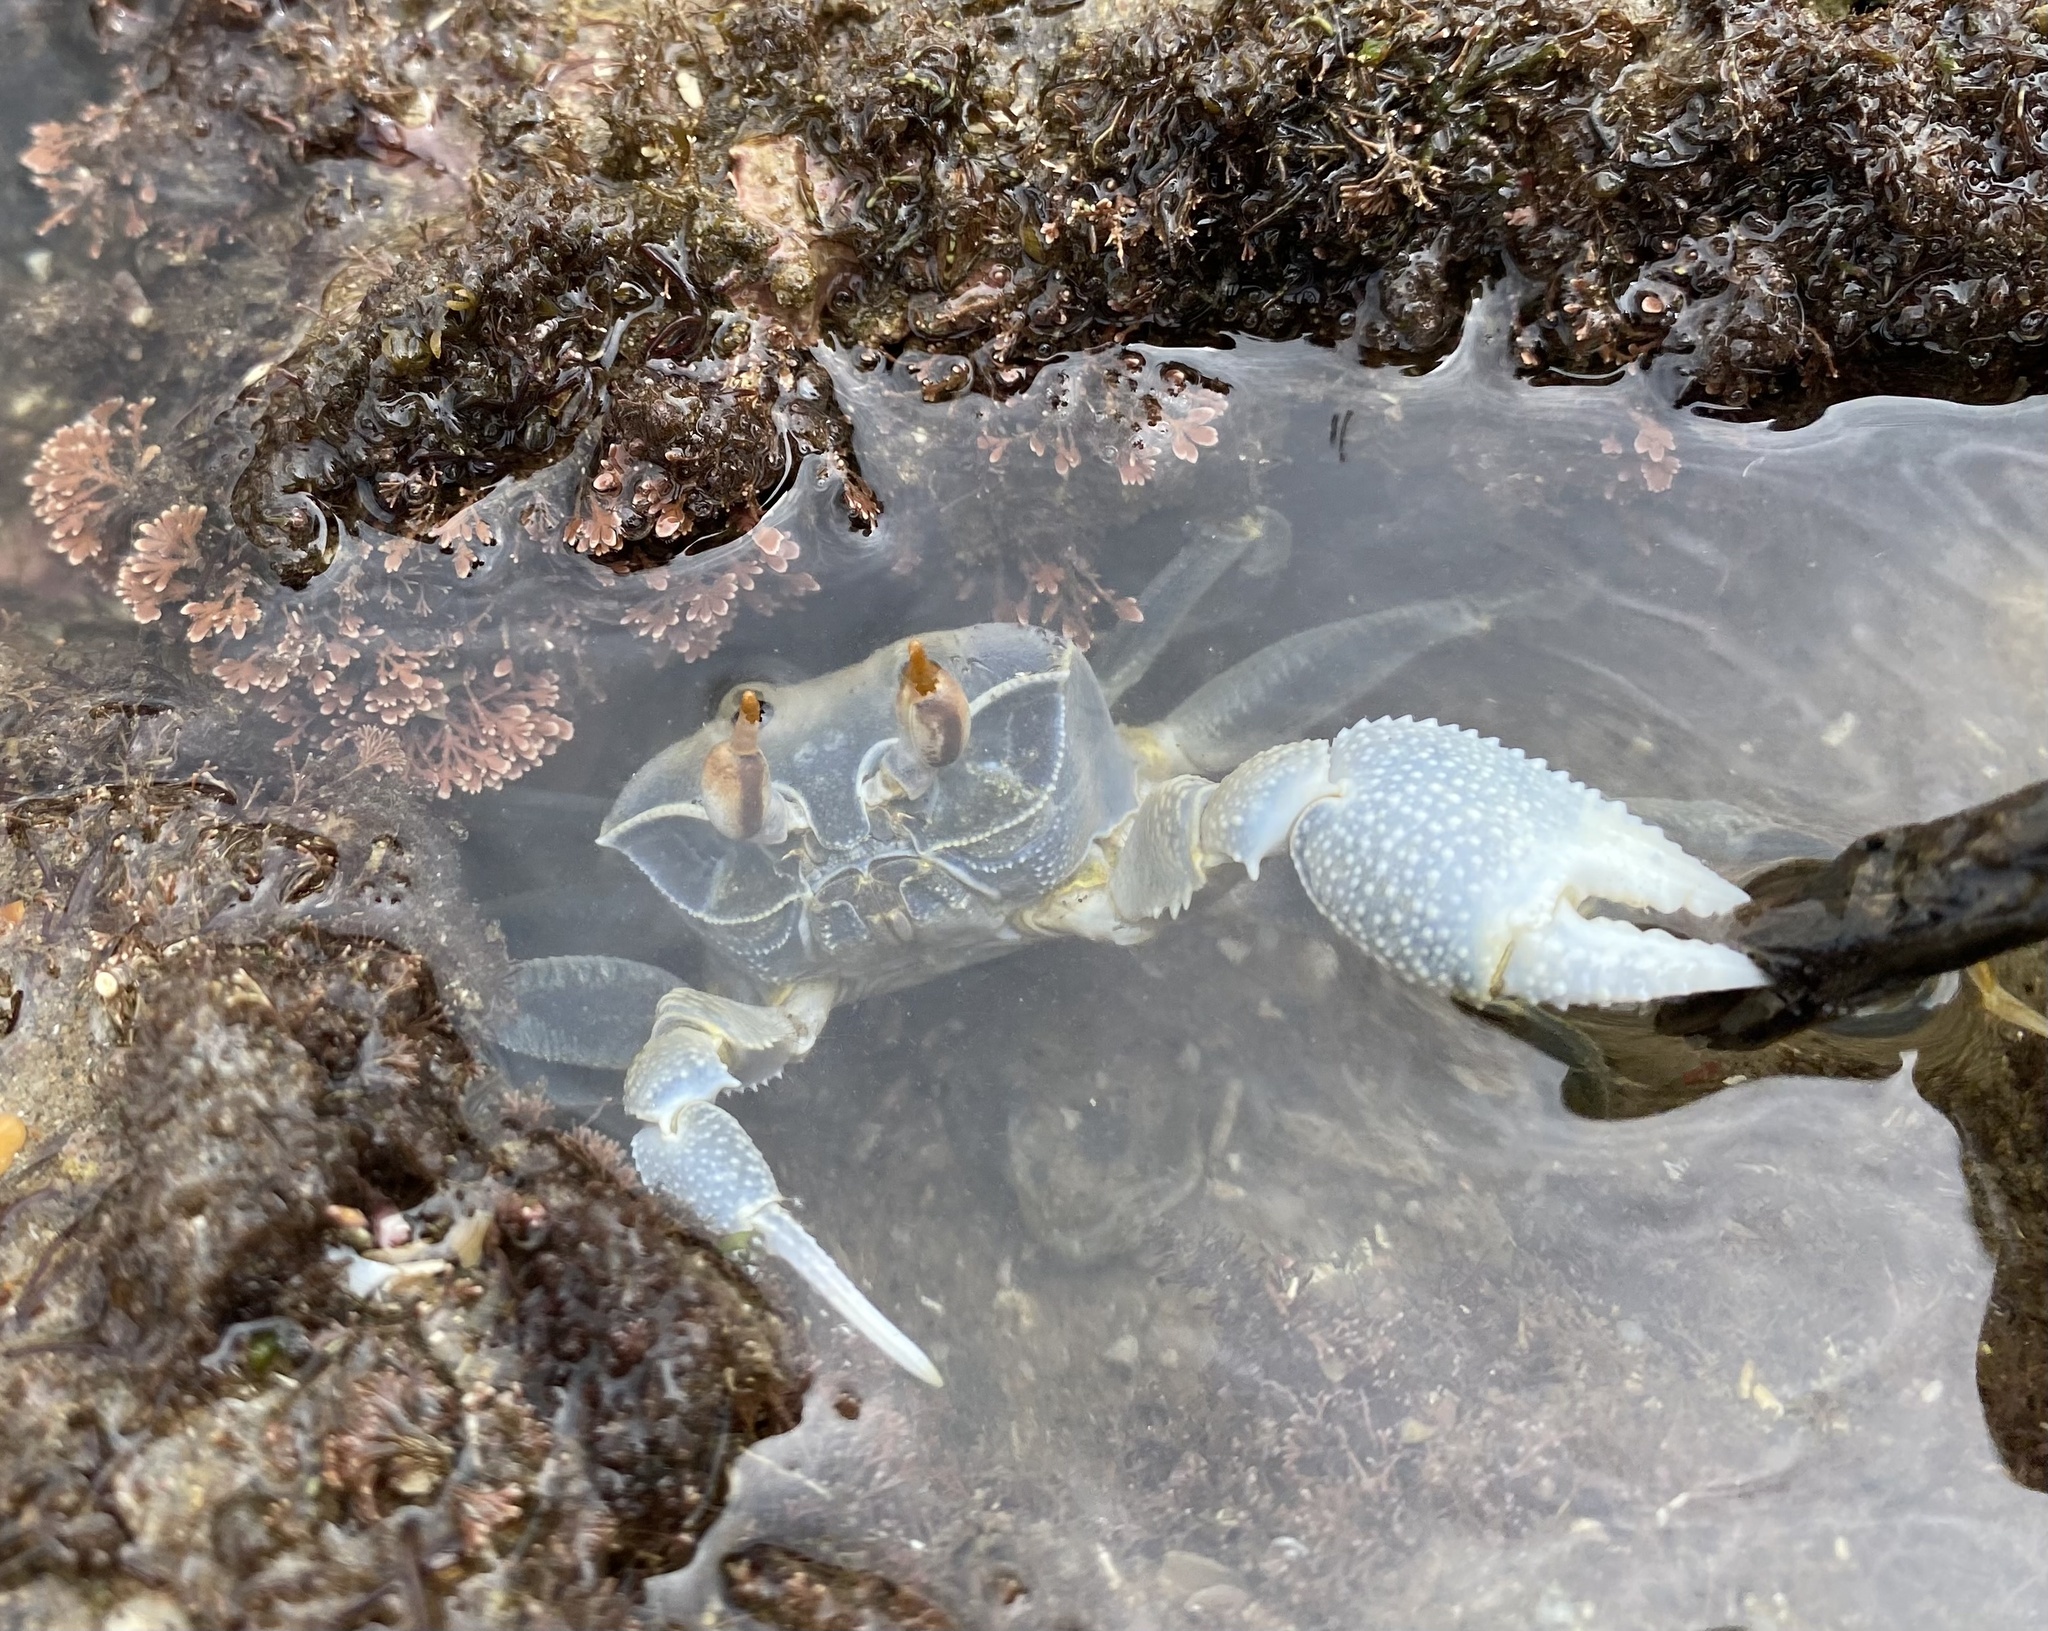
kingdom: Animalia
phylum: Arthropoda
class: Malacostraca
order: Decapoda
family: Ocypodidae
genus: Ocypode
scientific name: Ocypode ceratophthalmus
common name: Indo-pacific ghost crab
